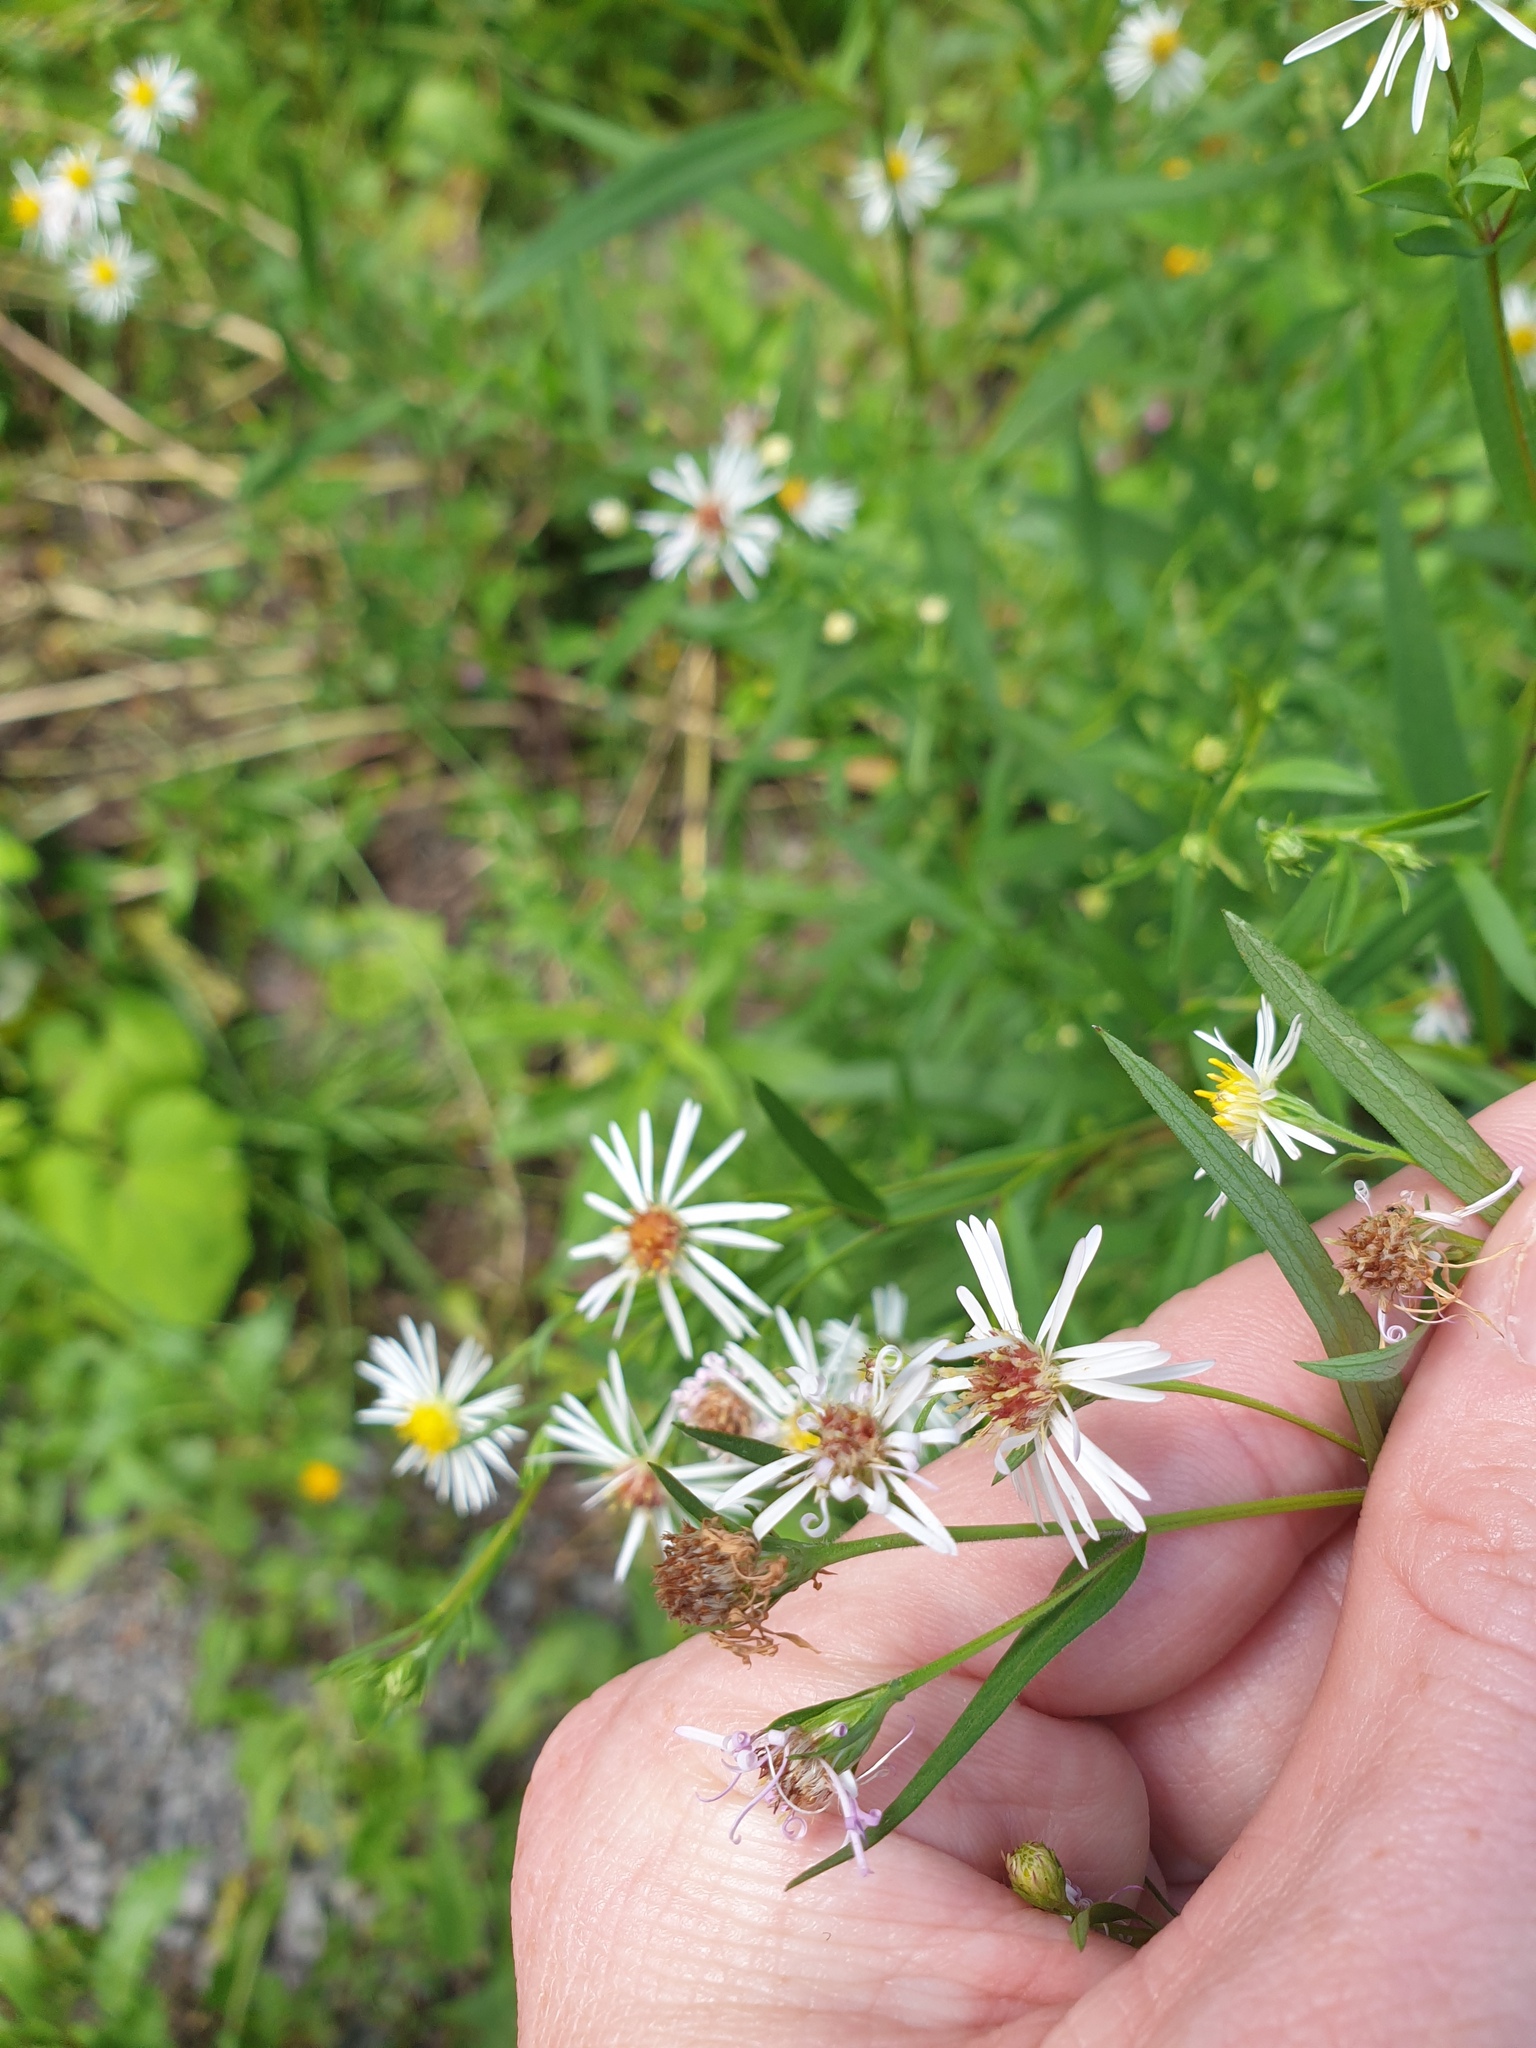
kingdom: Plantae
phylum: Tracheophyta
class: Magnoliopsida
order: Asterales
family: Asteraceae
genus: Symphyotrichum
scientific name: Symphyotrichum lanceolatum
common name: Panicled aster
